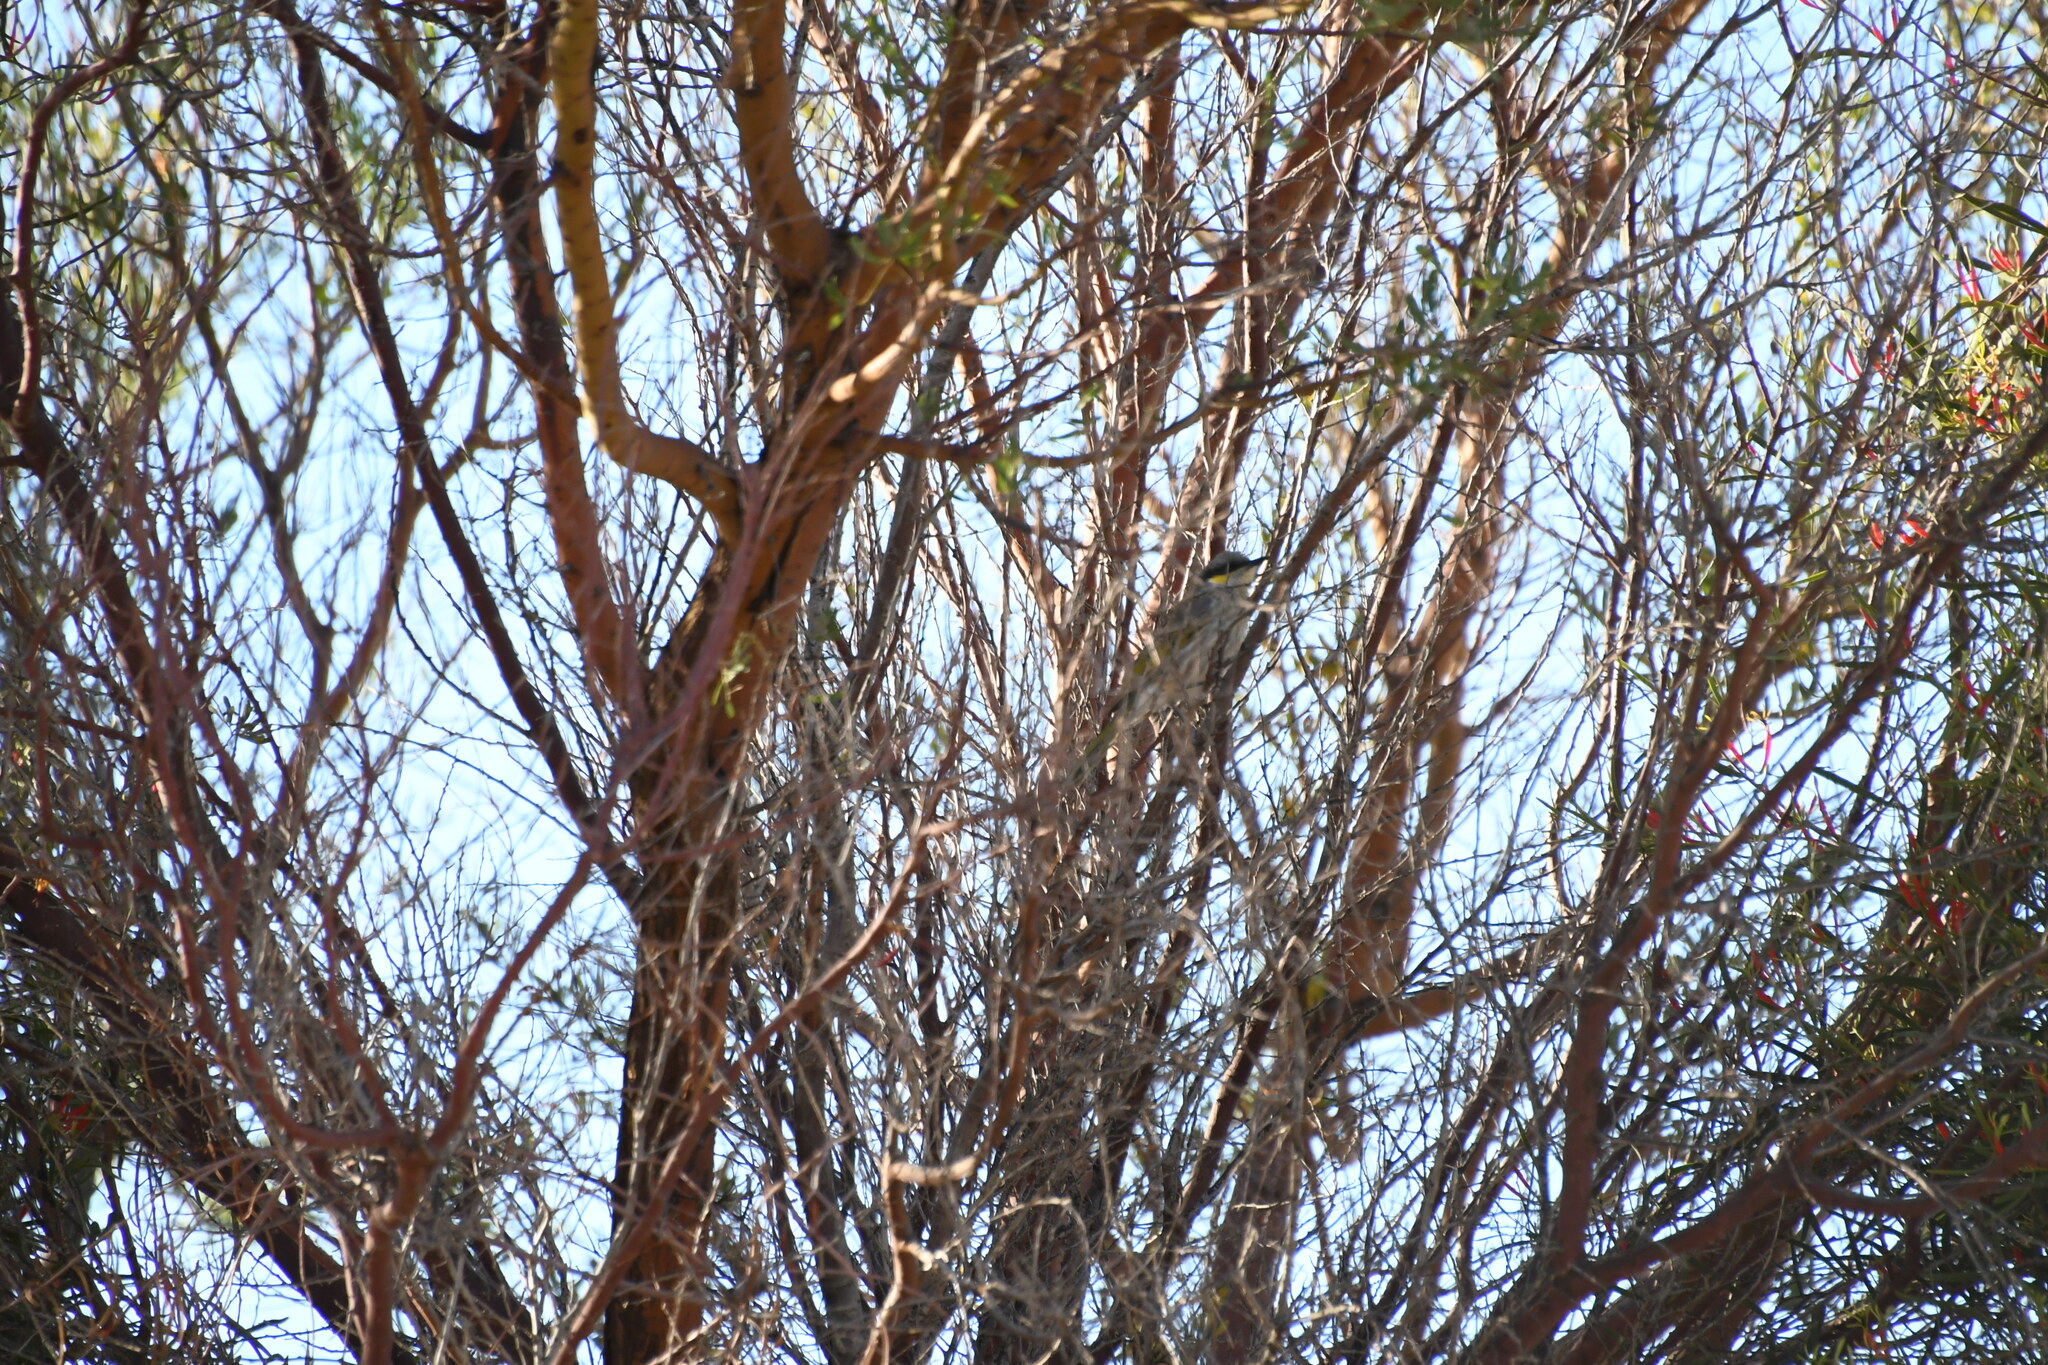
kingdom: Animalia
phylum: Chordata
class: Aves
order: Passeriformes
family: Meliphagidae
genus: Gavicalis
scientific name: Gavicalis virescens
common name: Singing honeyeater
